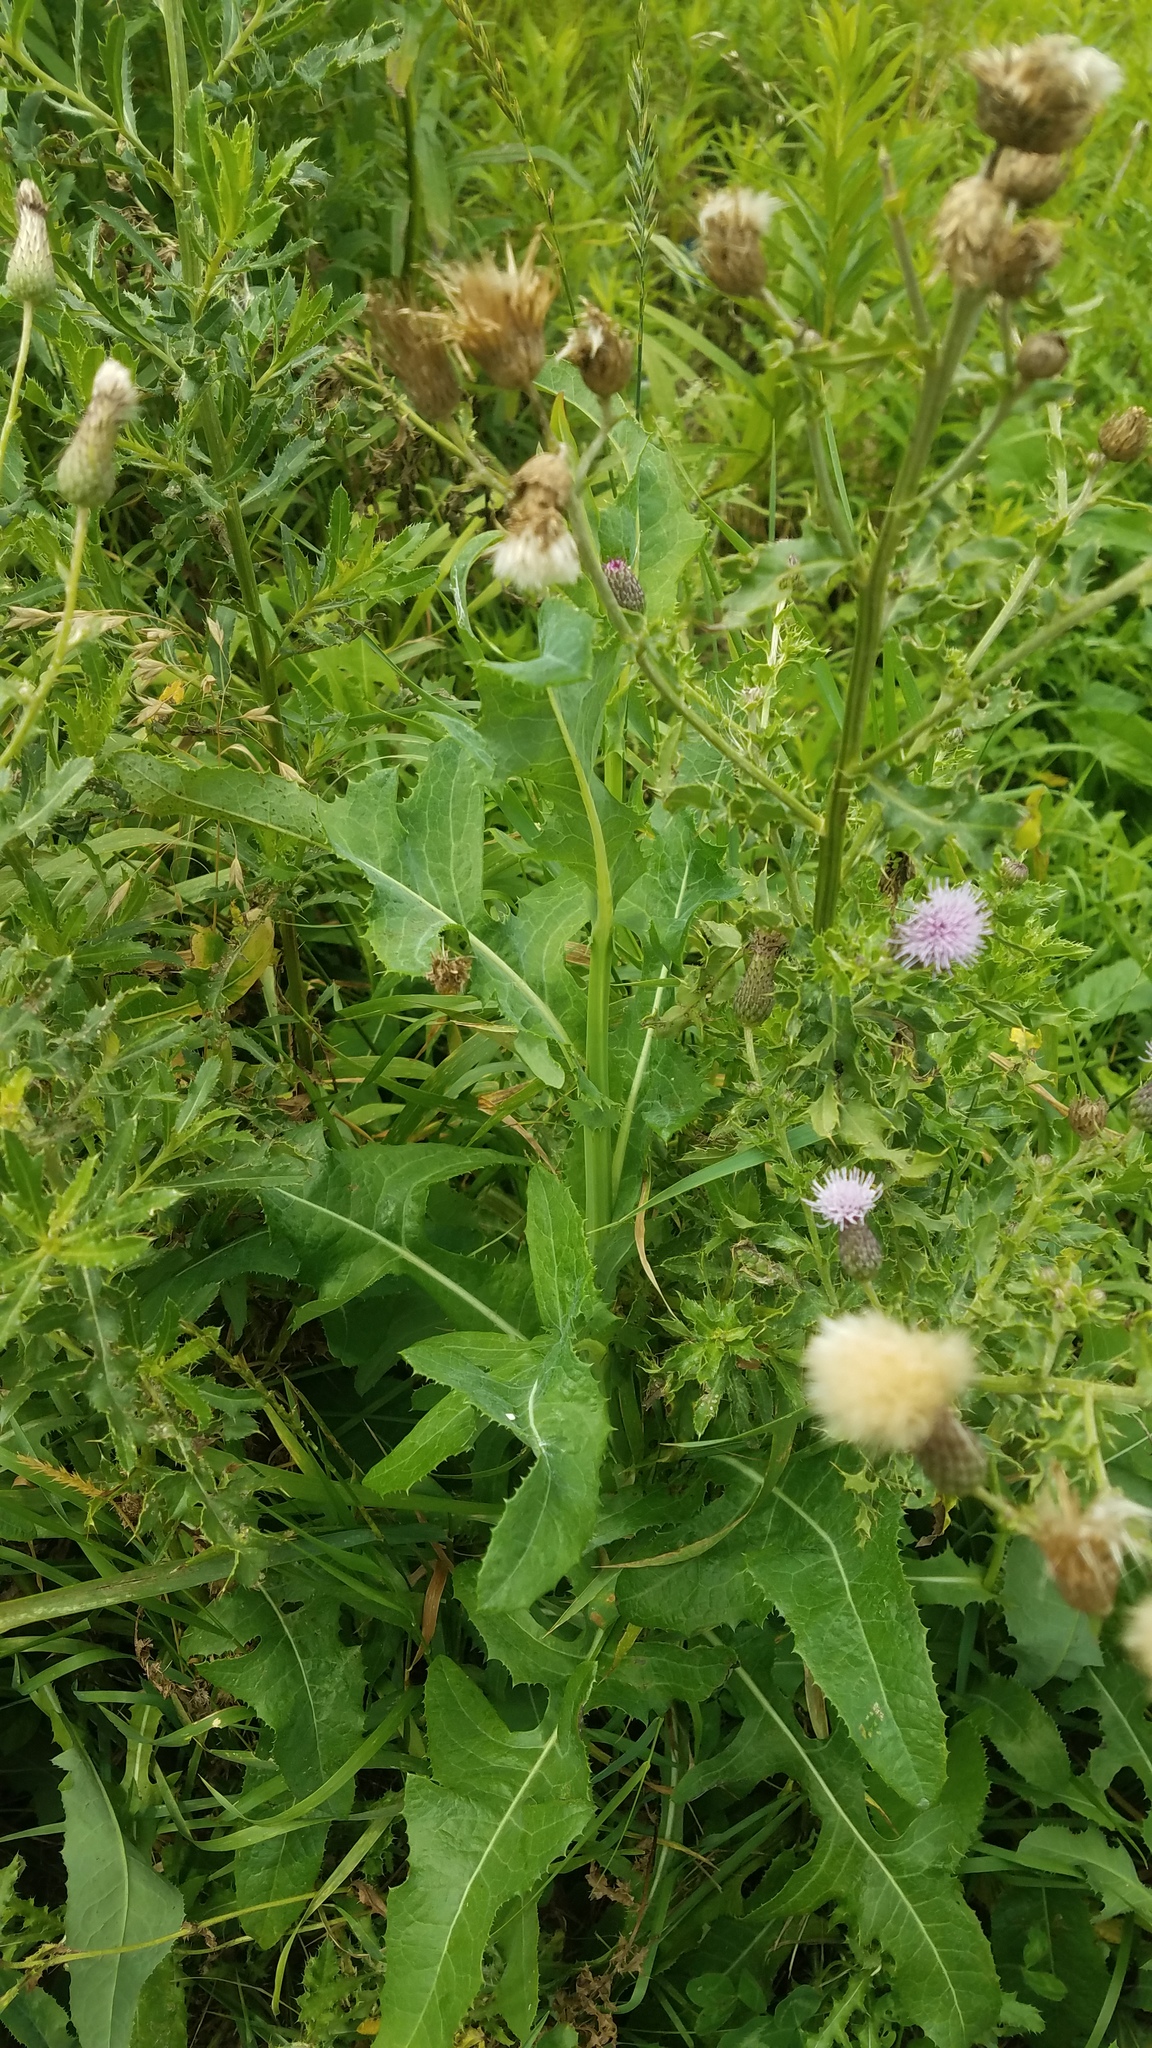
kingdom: Plantae
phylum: Tracheophyta
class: Magnoliopsida
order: Asterales
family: Asteraceae
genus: Cirsium
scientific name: Cirsium arvense
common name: Creeping thistle
